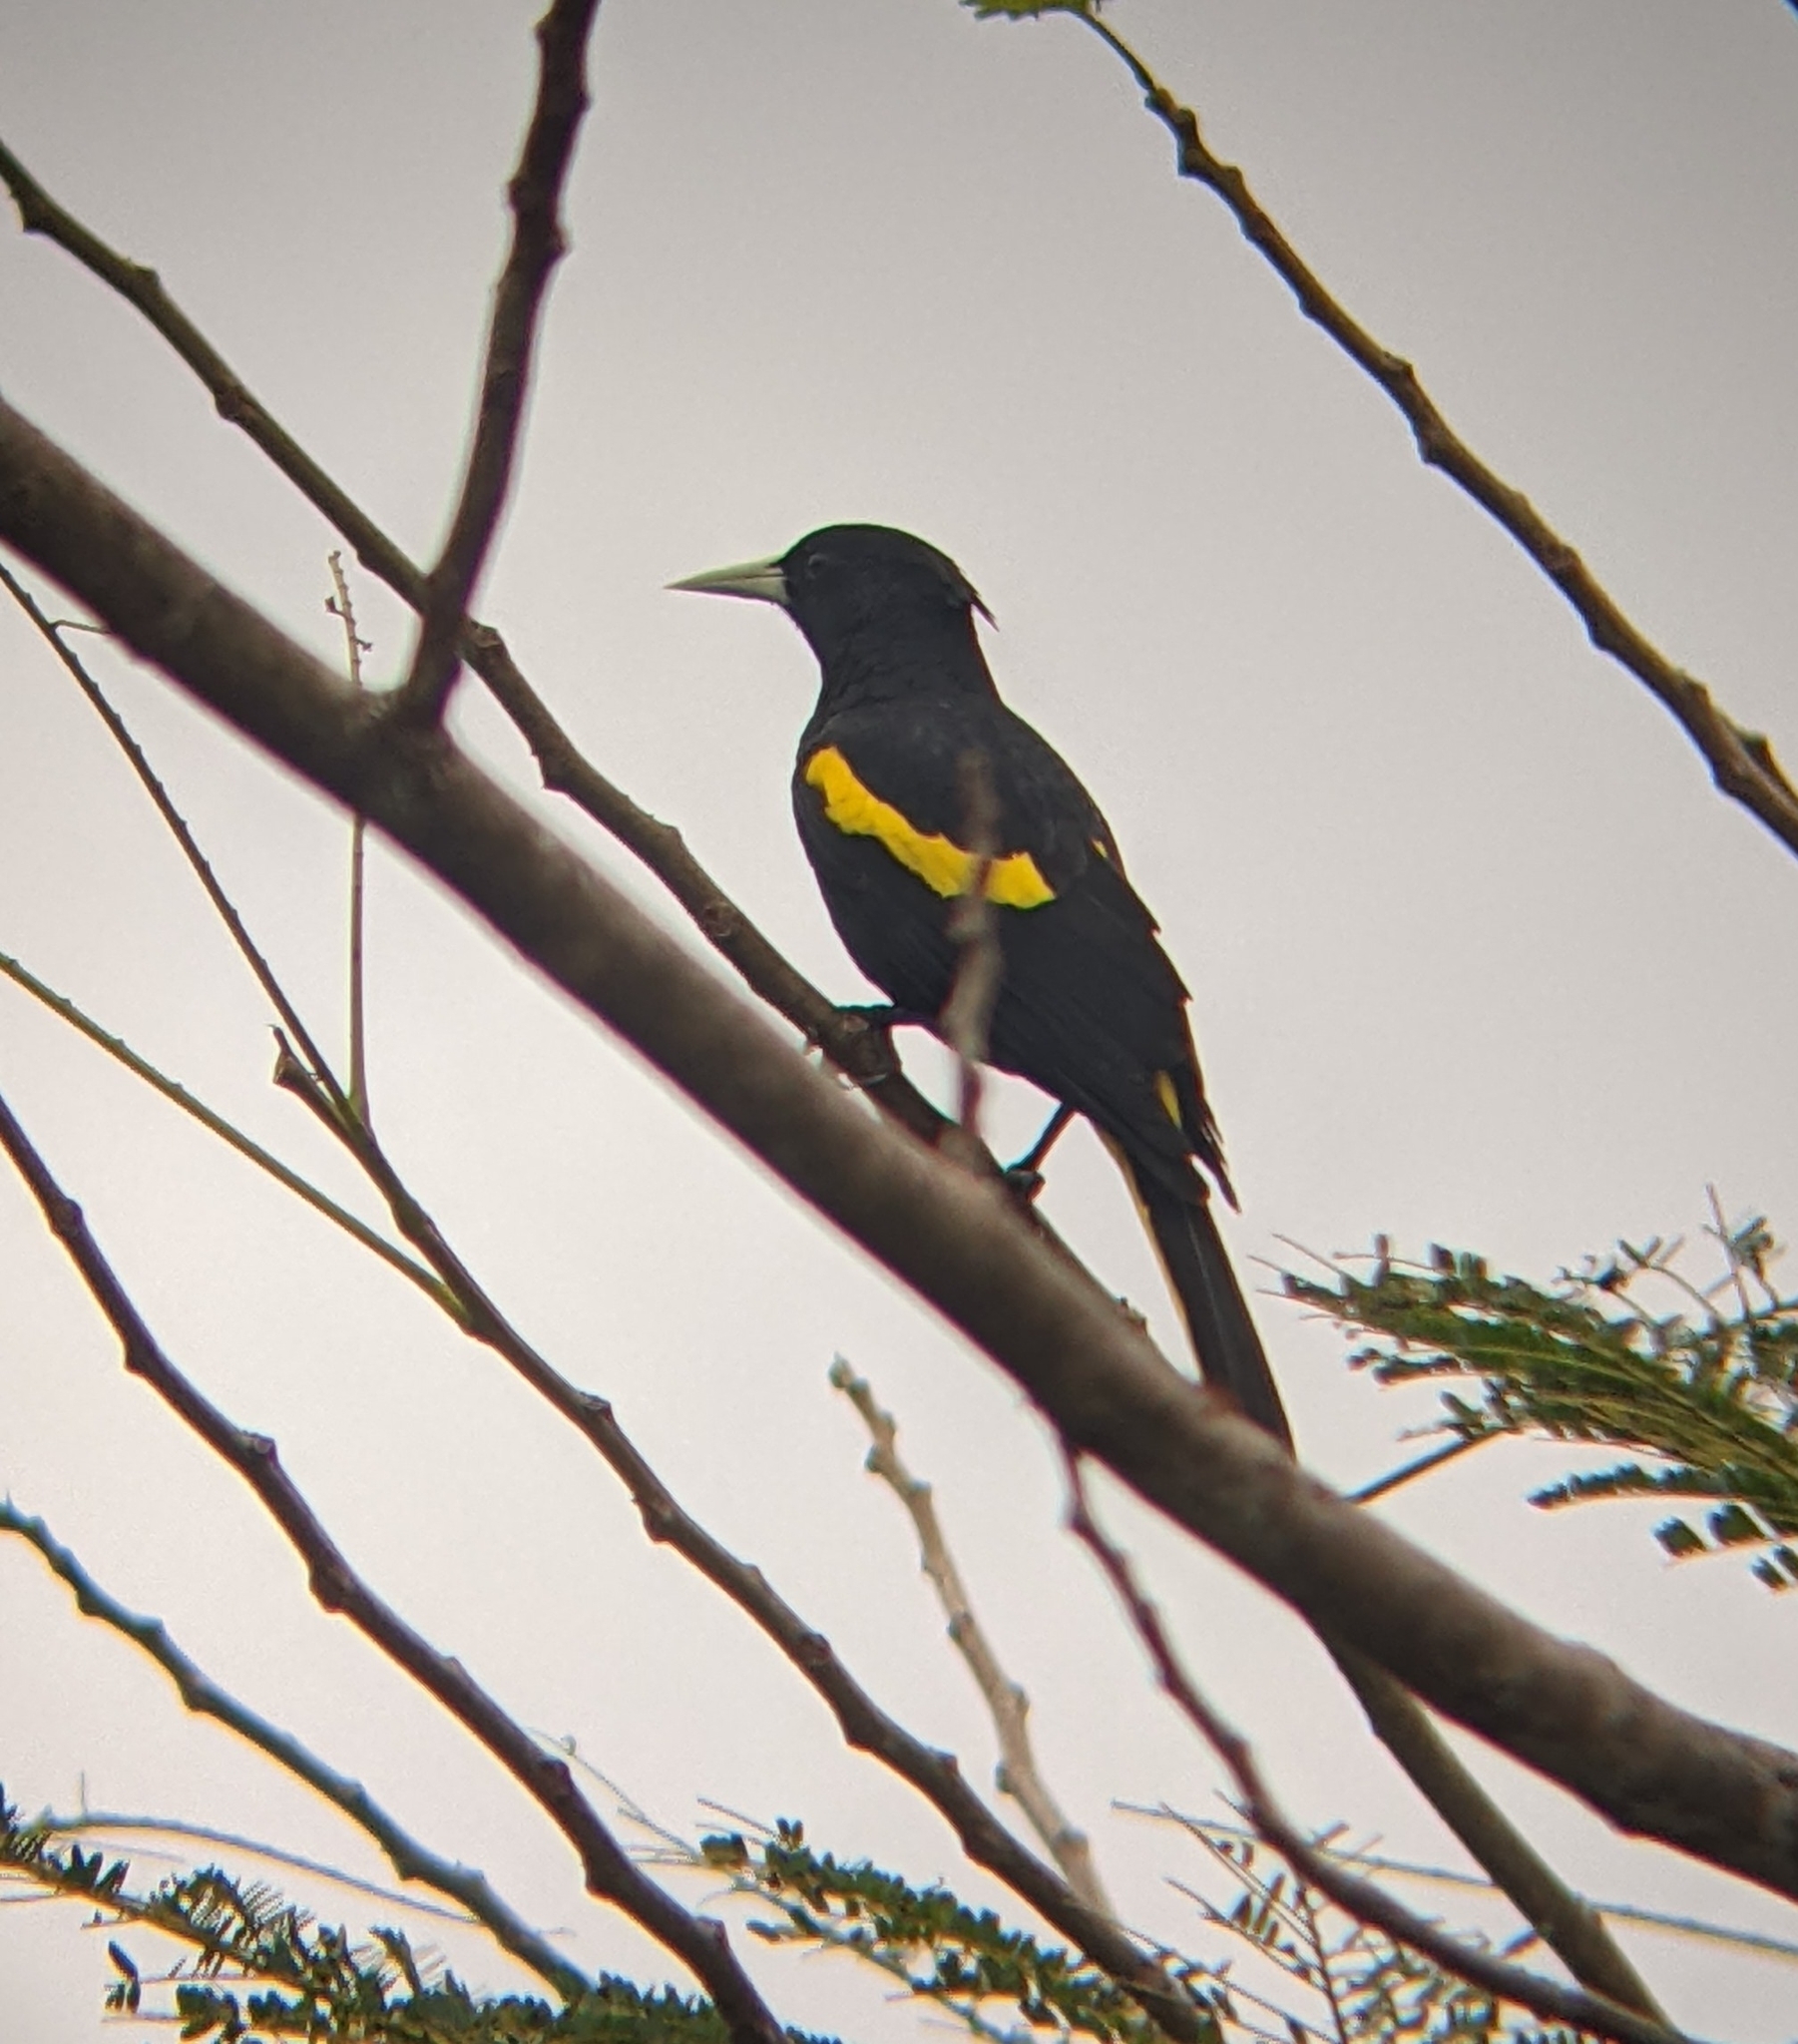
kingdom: Animalia
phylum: Chordata
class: Aves
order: Passeriformes
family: Icteridae
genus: Cacicus
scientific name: Cacicus melanicterus
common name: Yellow-winged cacique
